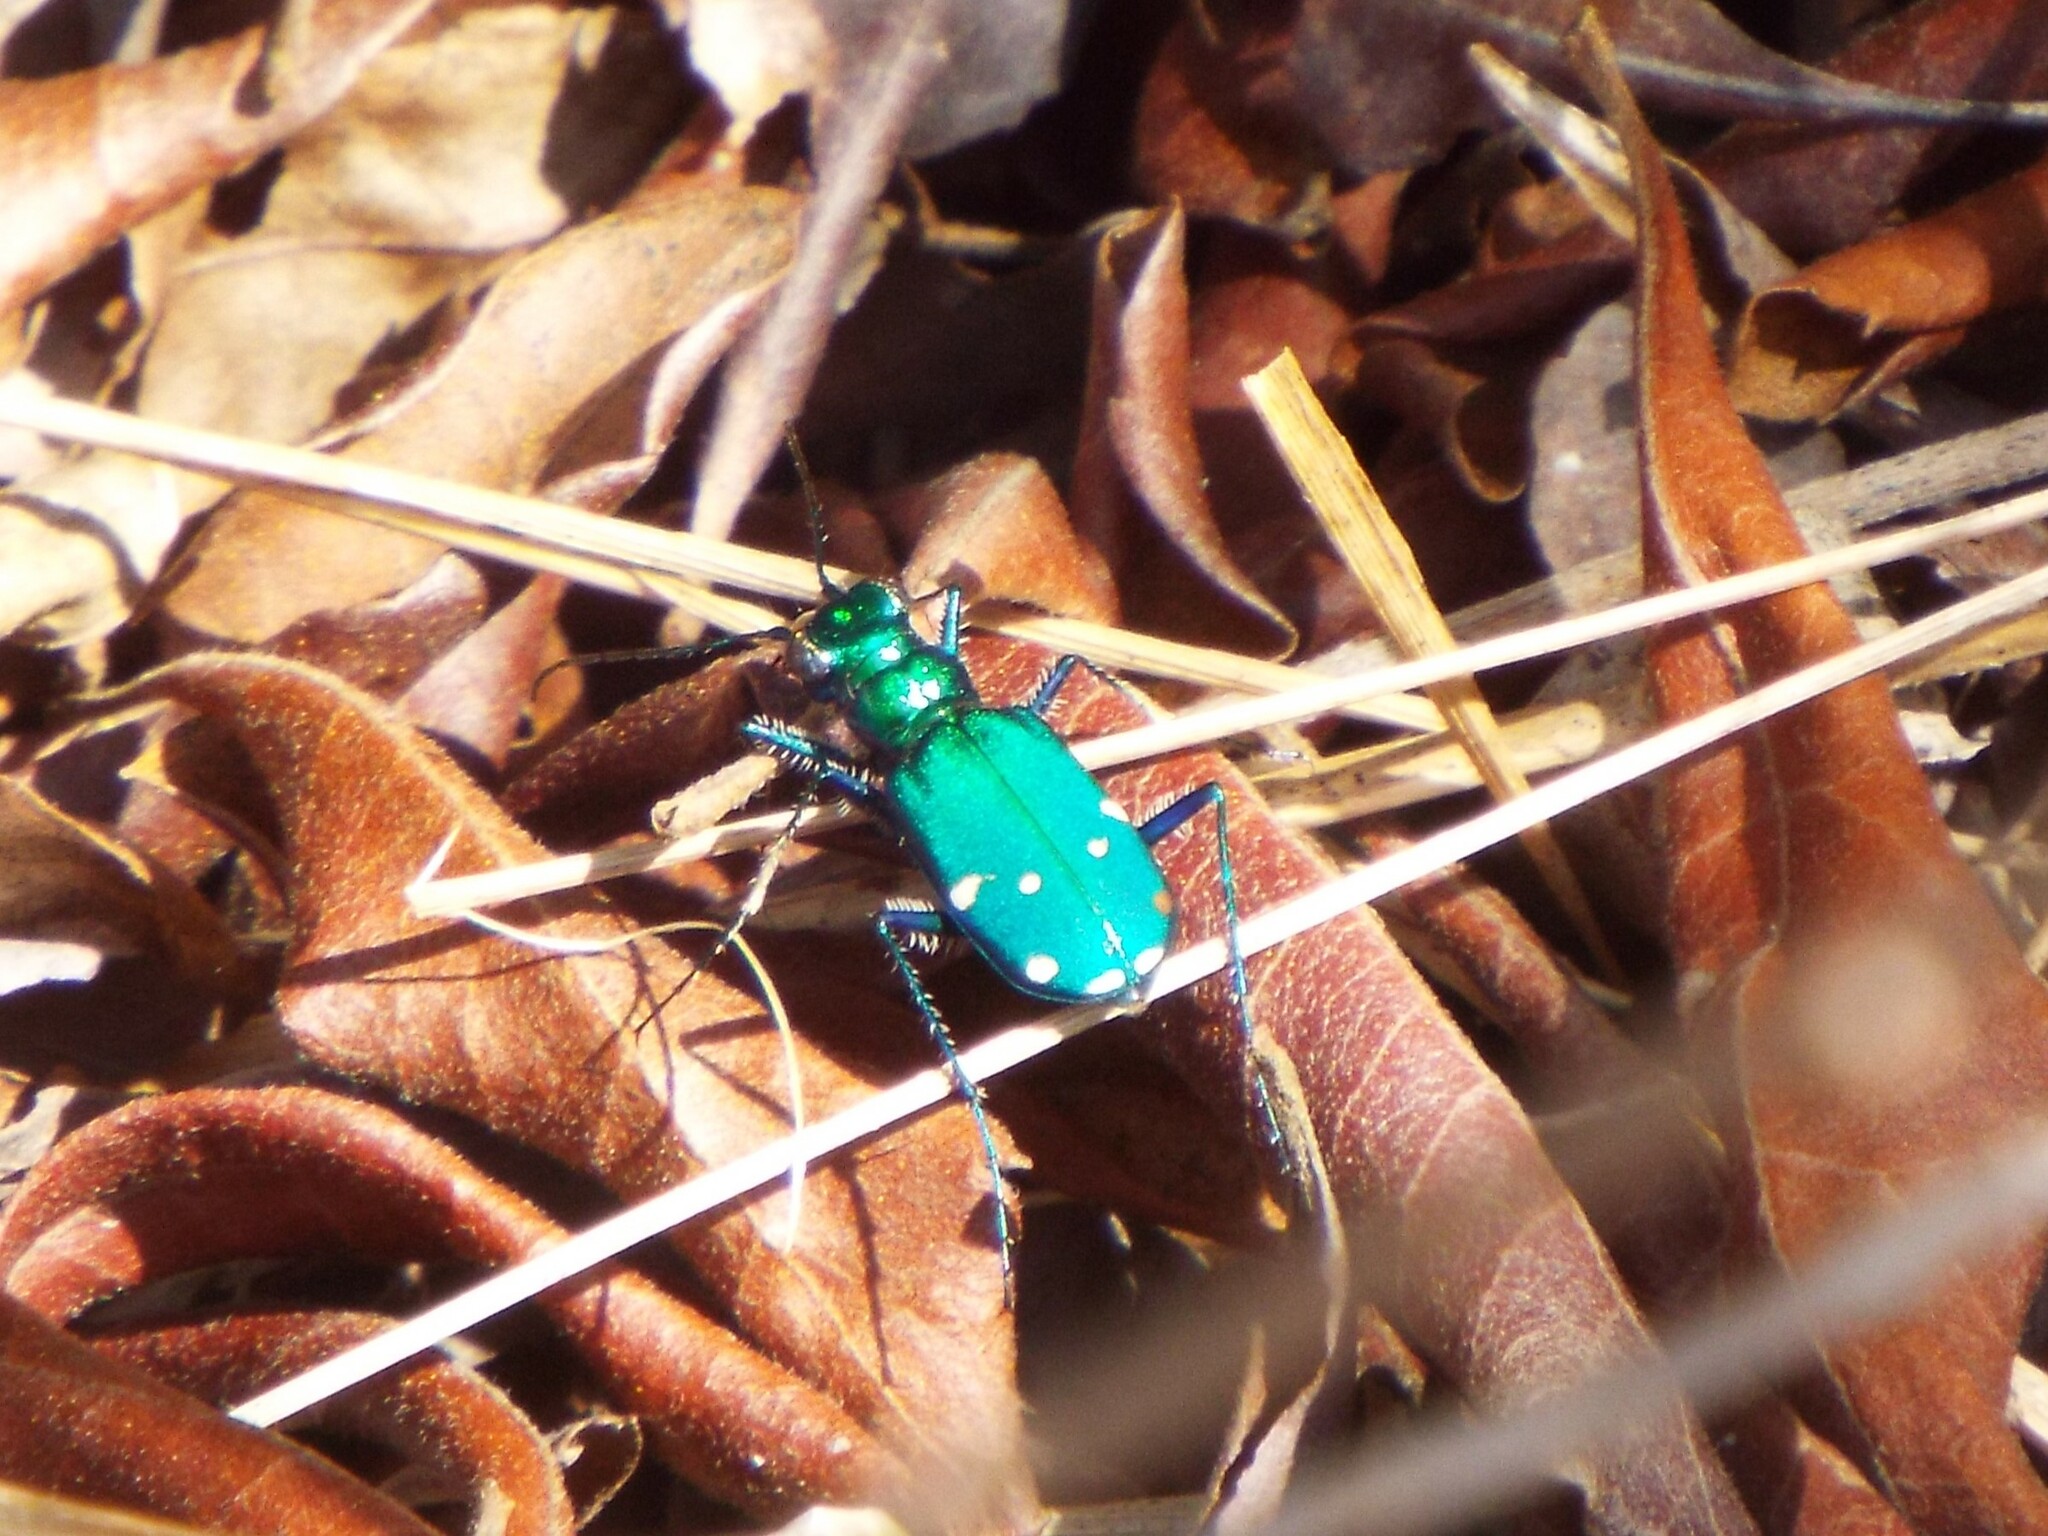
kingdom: Animalia
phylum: Arthropoda
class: Insecta
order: Coleoptera
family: Carabidae
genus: Cicindela
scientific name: Cicindela sexguttata
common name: Six-spotted tiger beetle
